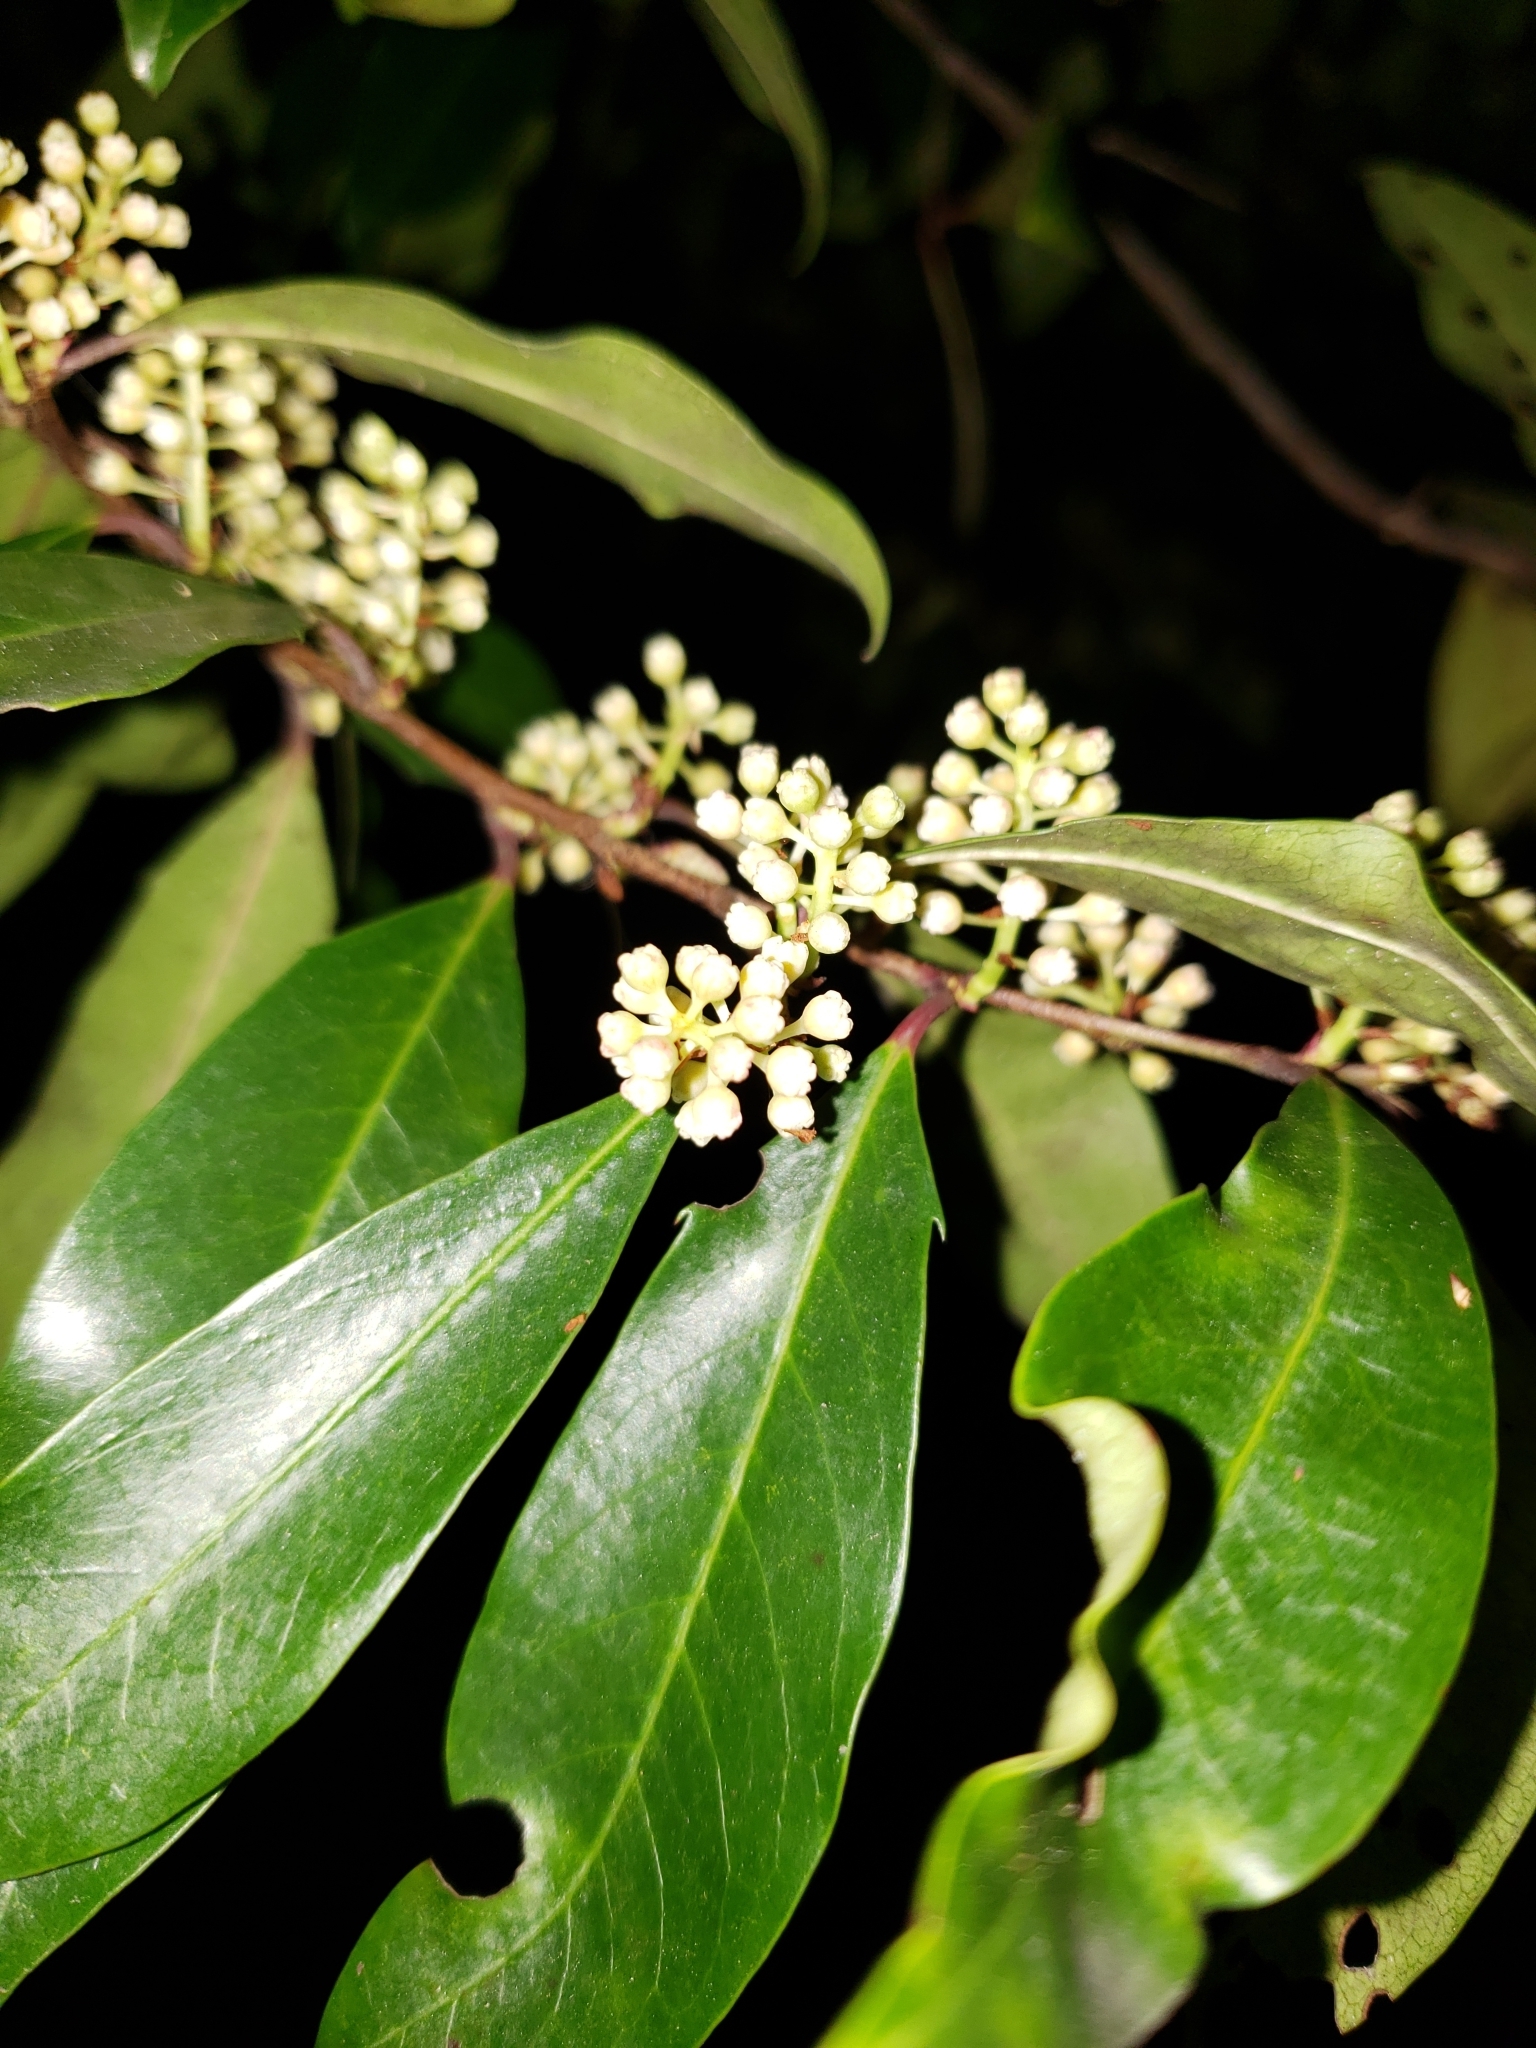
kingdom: Plantae
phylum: Tracheophyta
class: Magnoliopsida
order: Rosales
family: Rosaceae
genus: Prunus
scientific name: Prunus caroliniana
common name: Carolina laurel cherry
